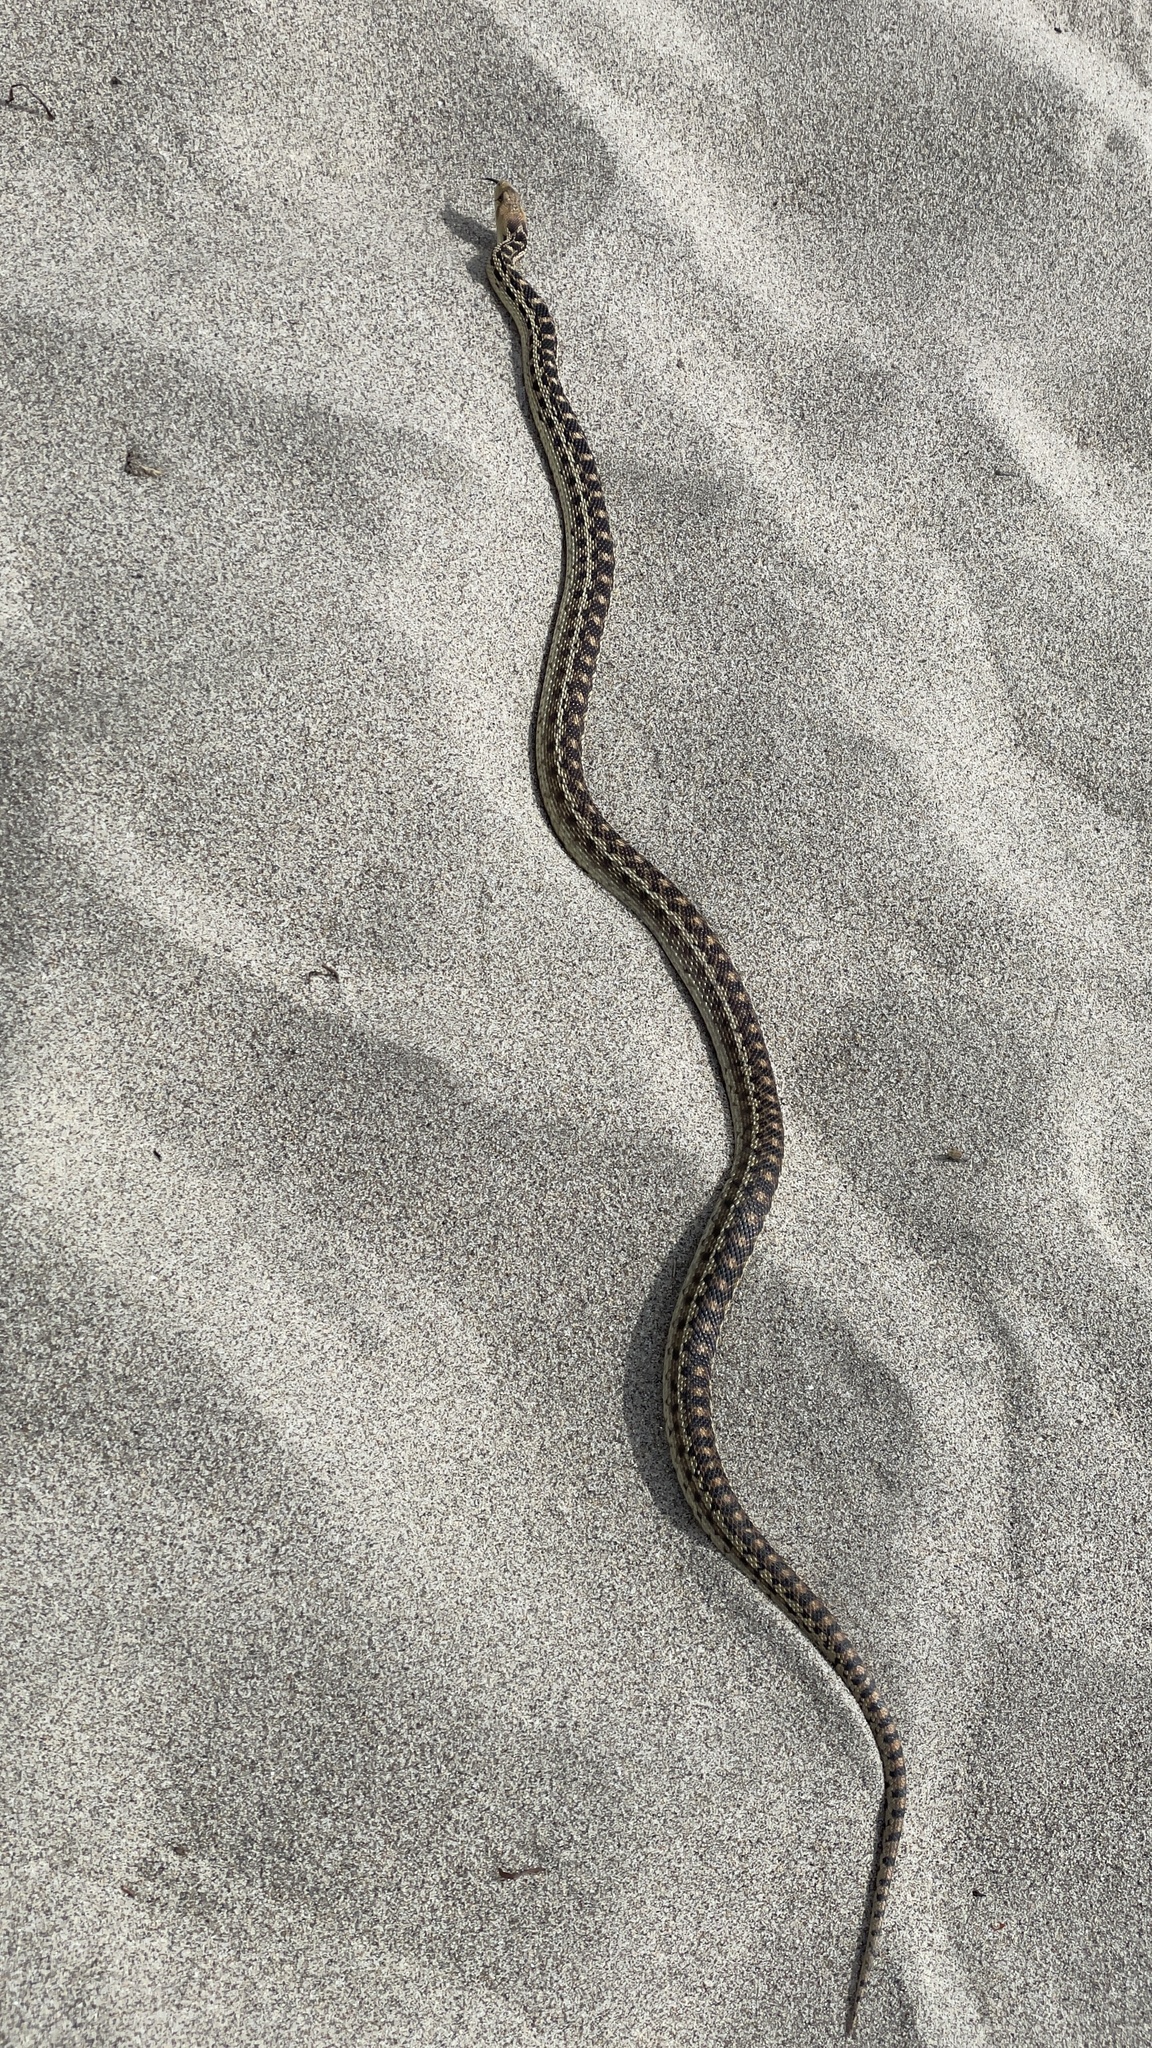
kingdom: Animalia
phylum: Chordata
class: Squamata
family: Colubridae
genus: Pituophis
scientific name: Pituophis catenifer
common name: Gopher snake
